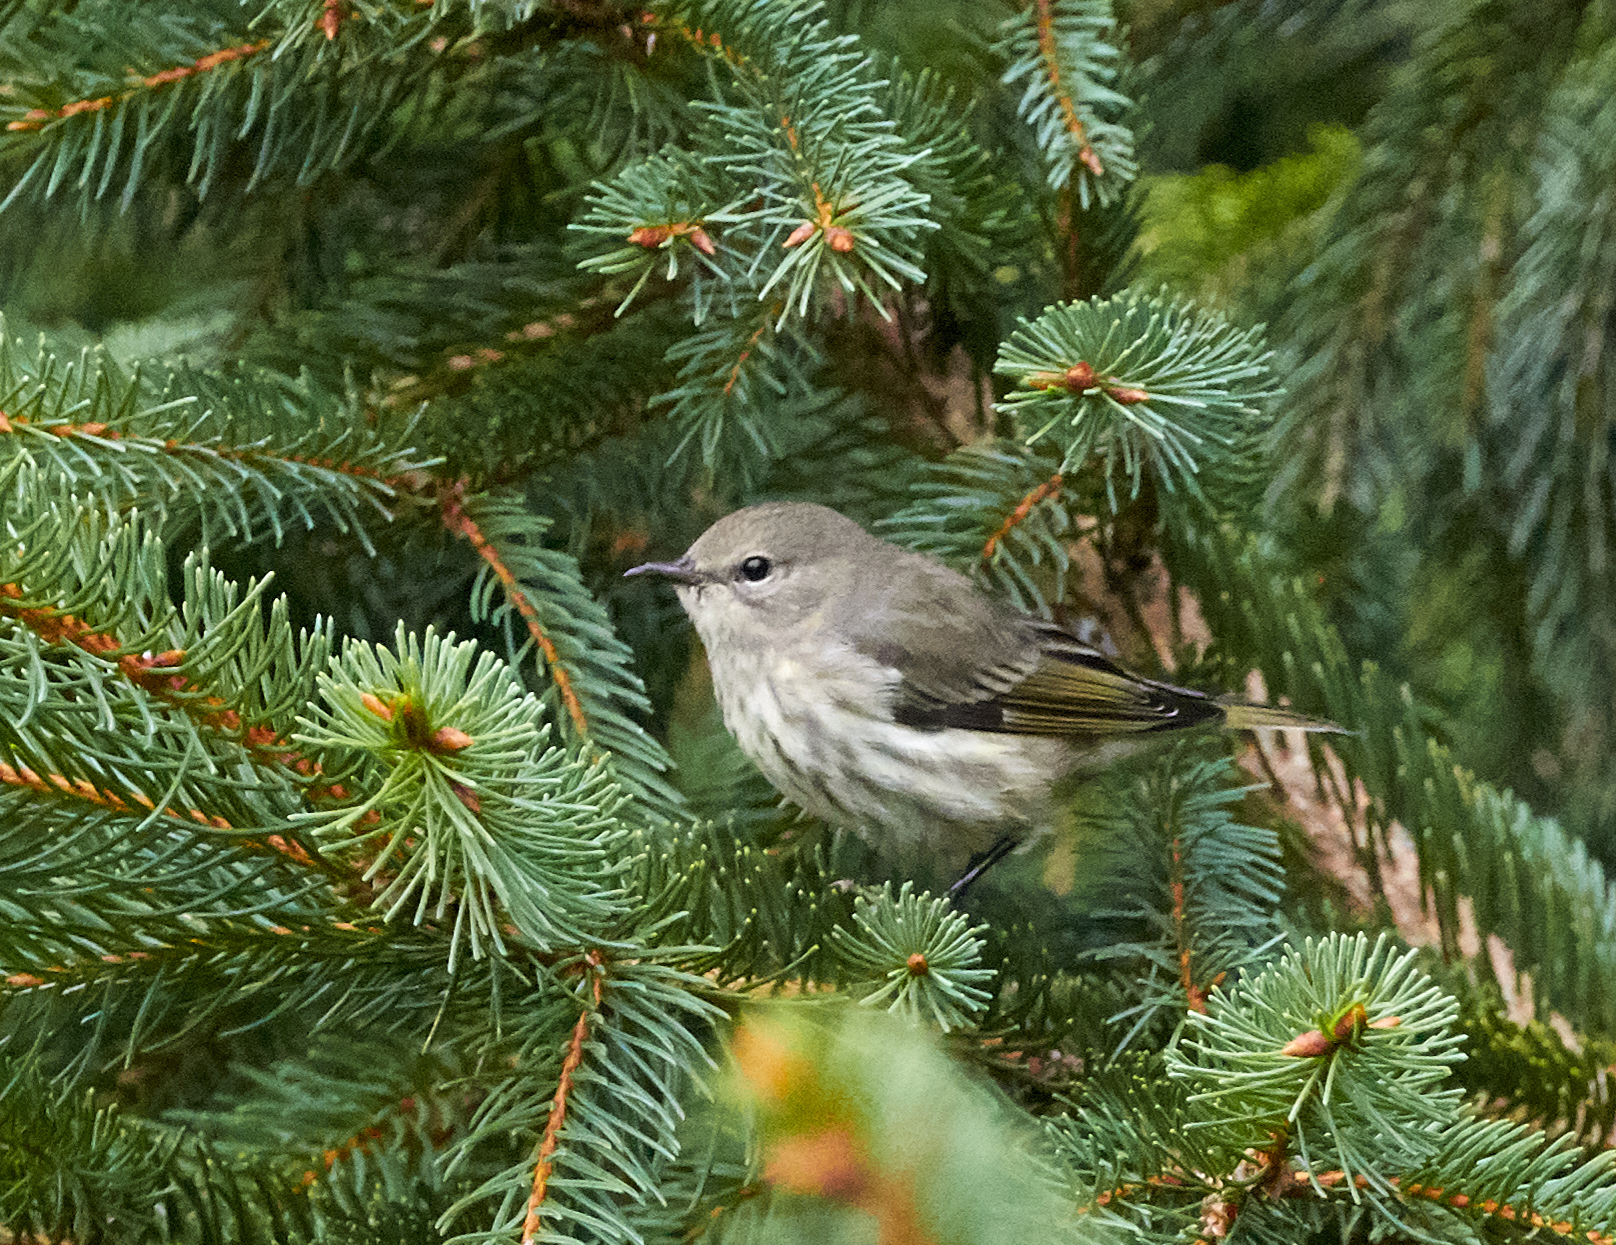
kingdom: Animalia
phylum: Chordata
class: Aves
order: Passeriformes
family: Parulidae
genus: Setophaga
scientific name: Setophaga tigrina
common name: Cape may warbler
